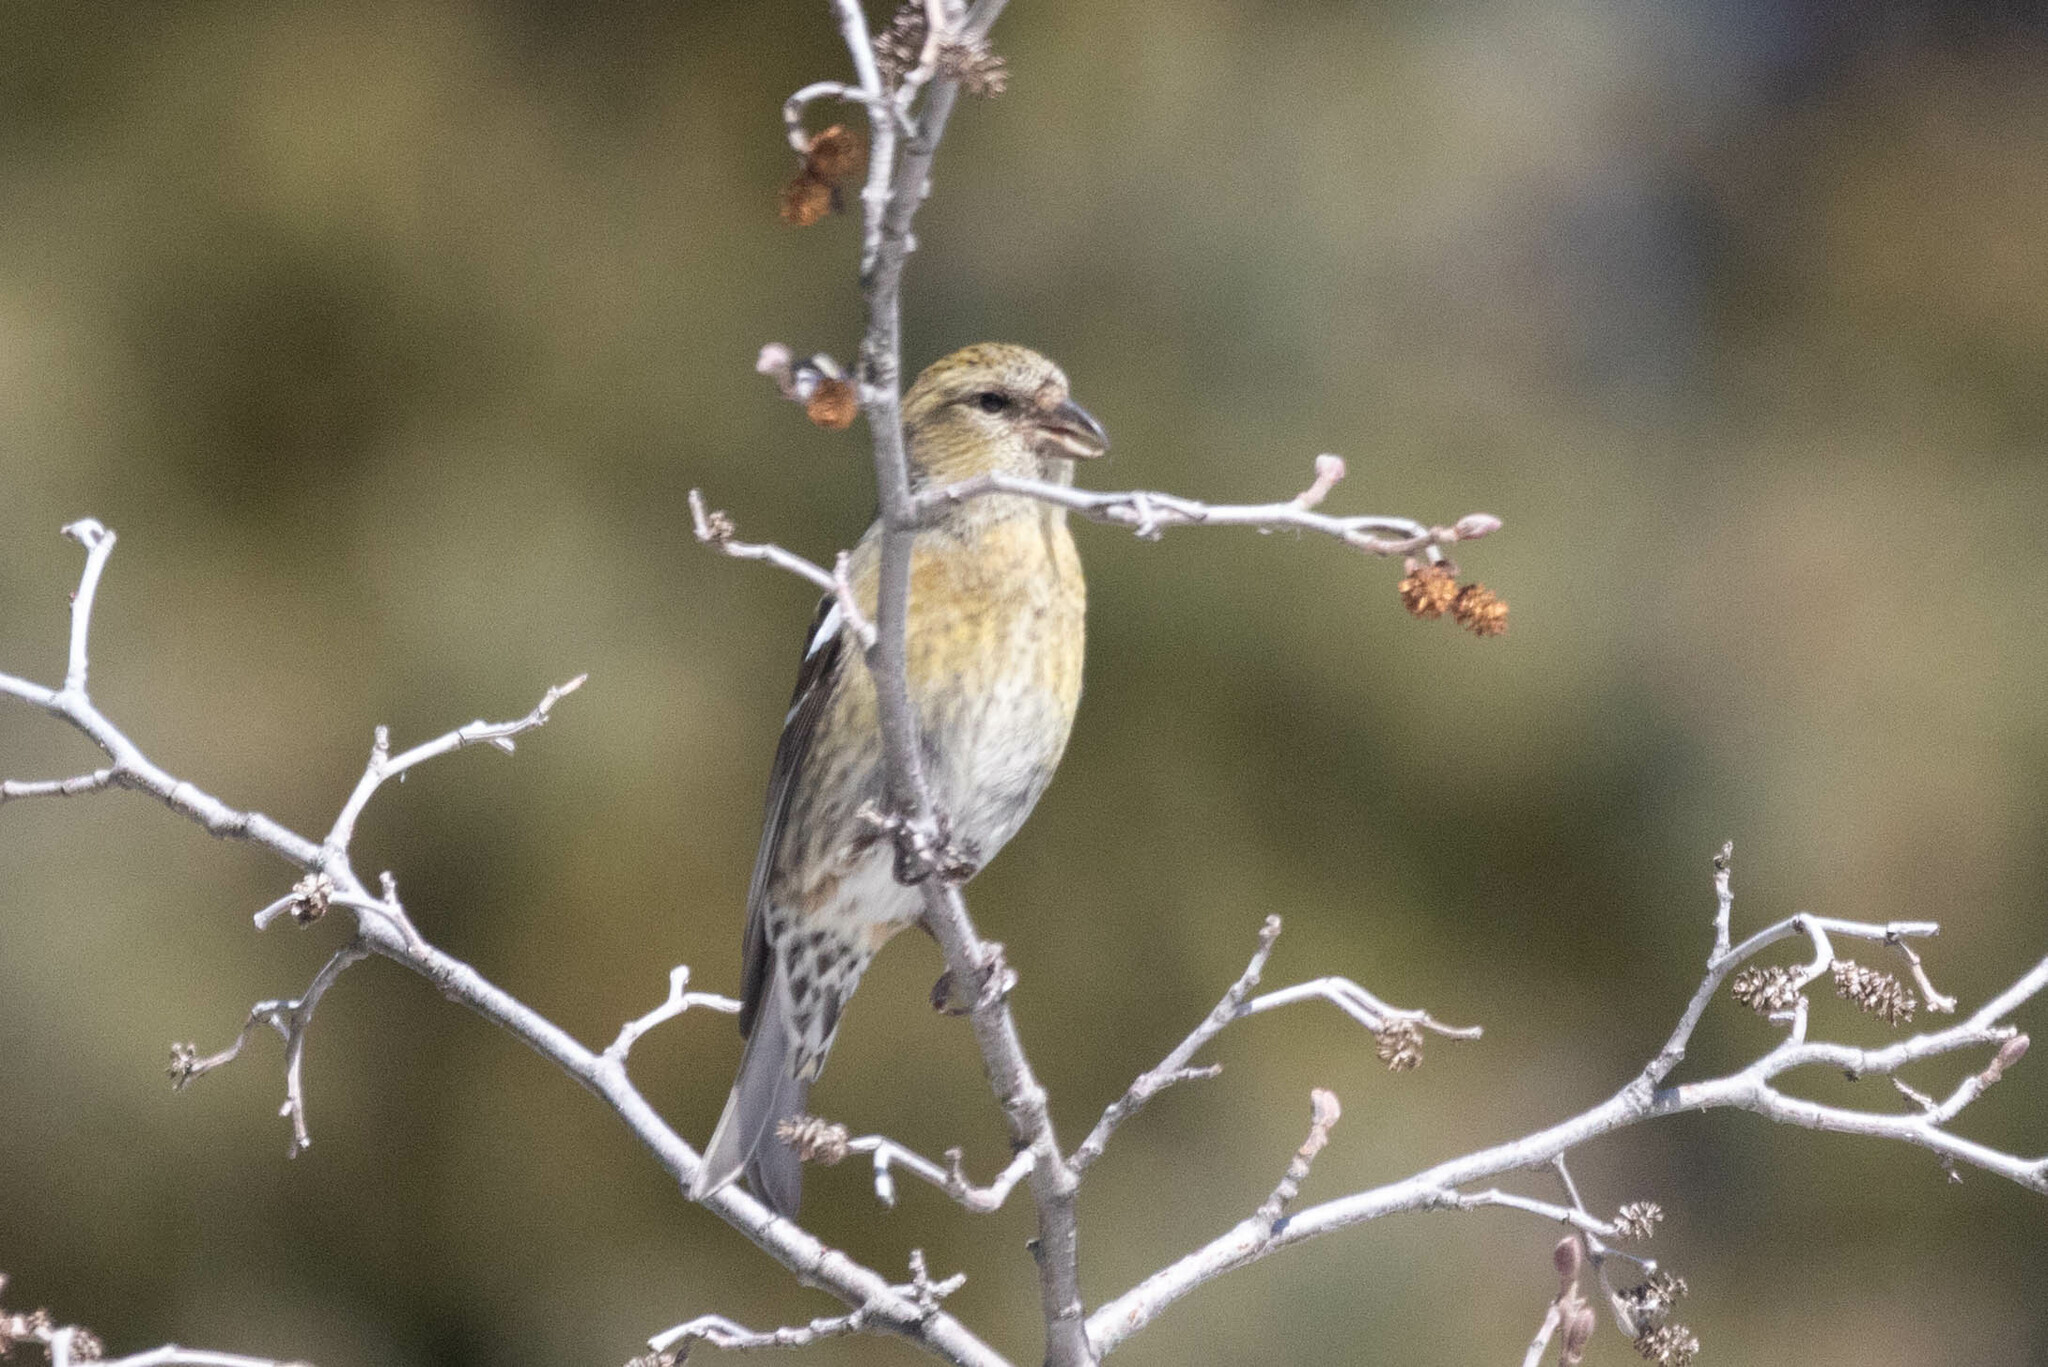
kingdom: Animalia
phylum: Chordata
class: Aves
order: Passeriformes
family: Fringillidae
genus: Loxia
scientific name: Loxia leucoptera
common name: Two-barred crossbill
